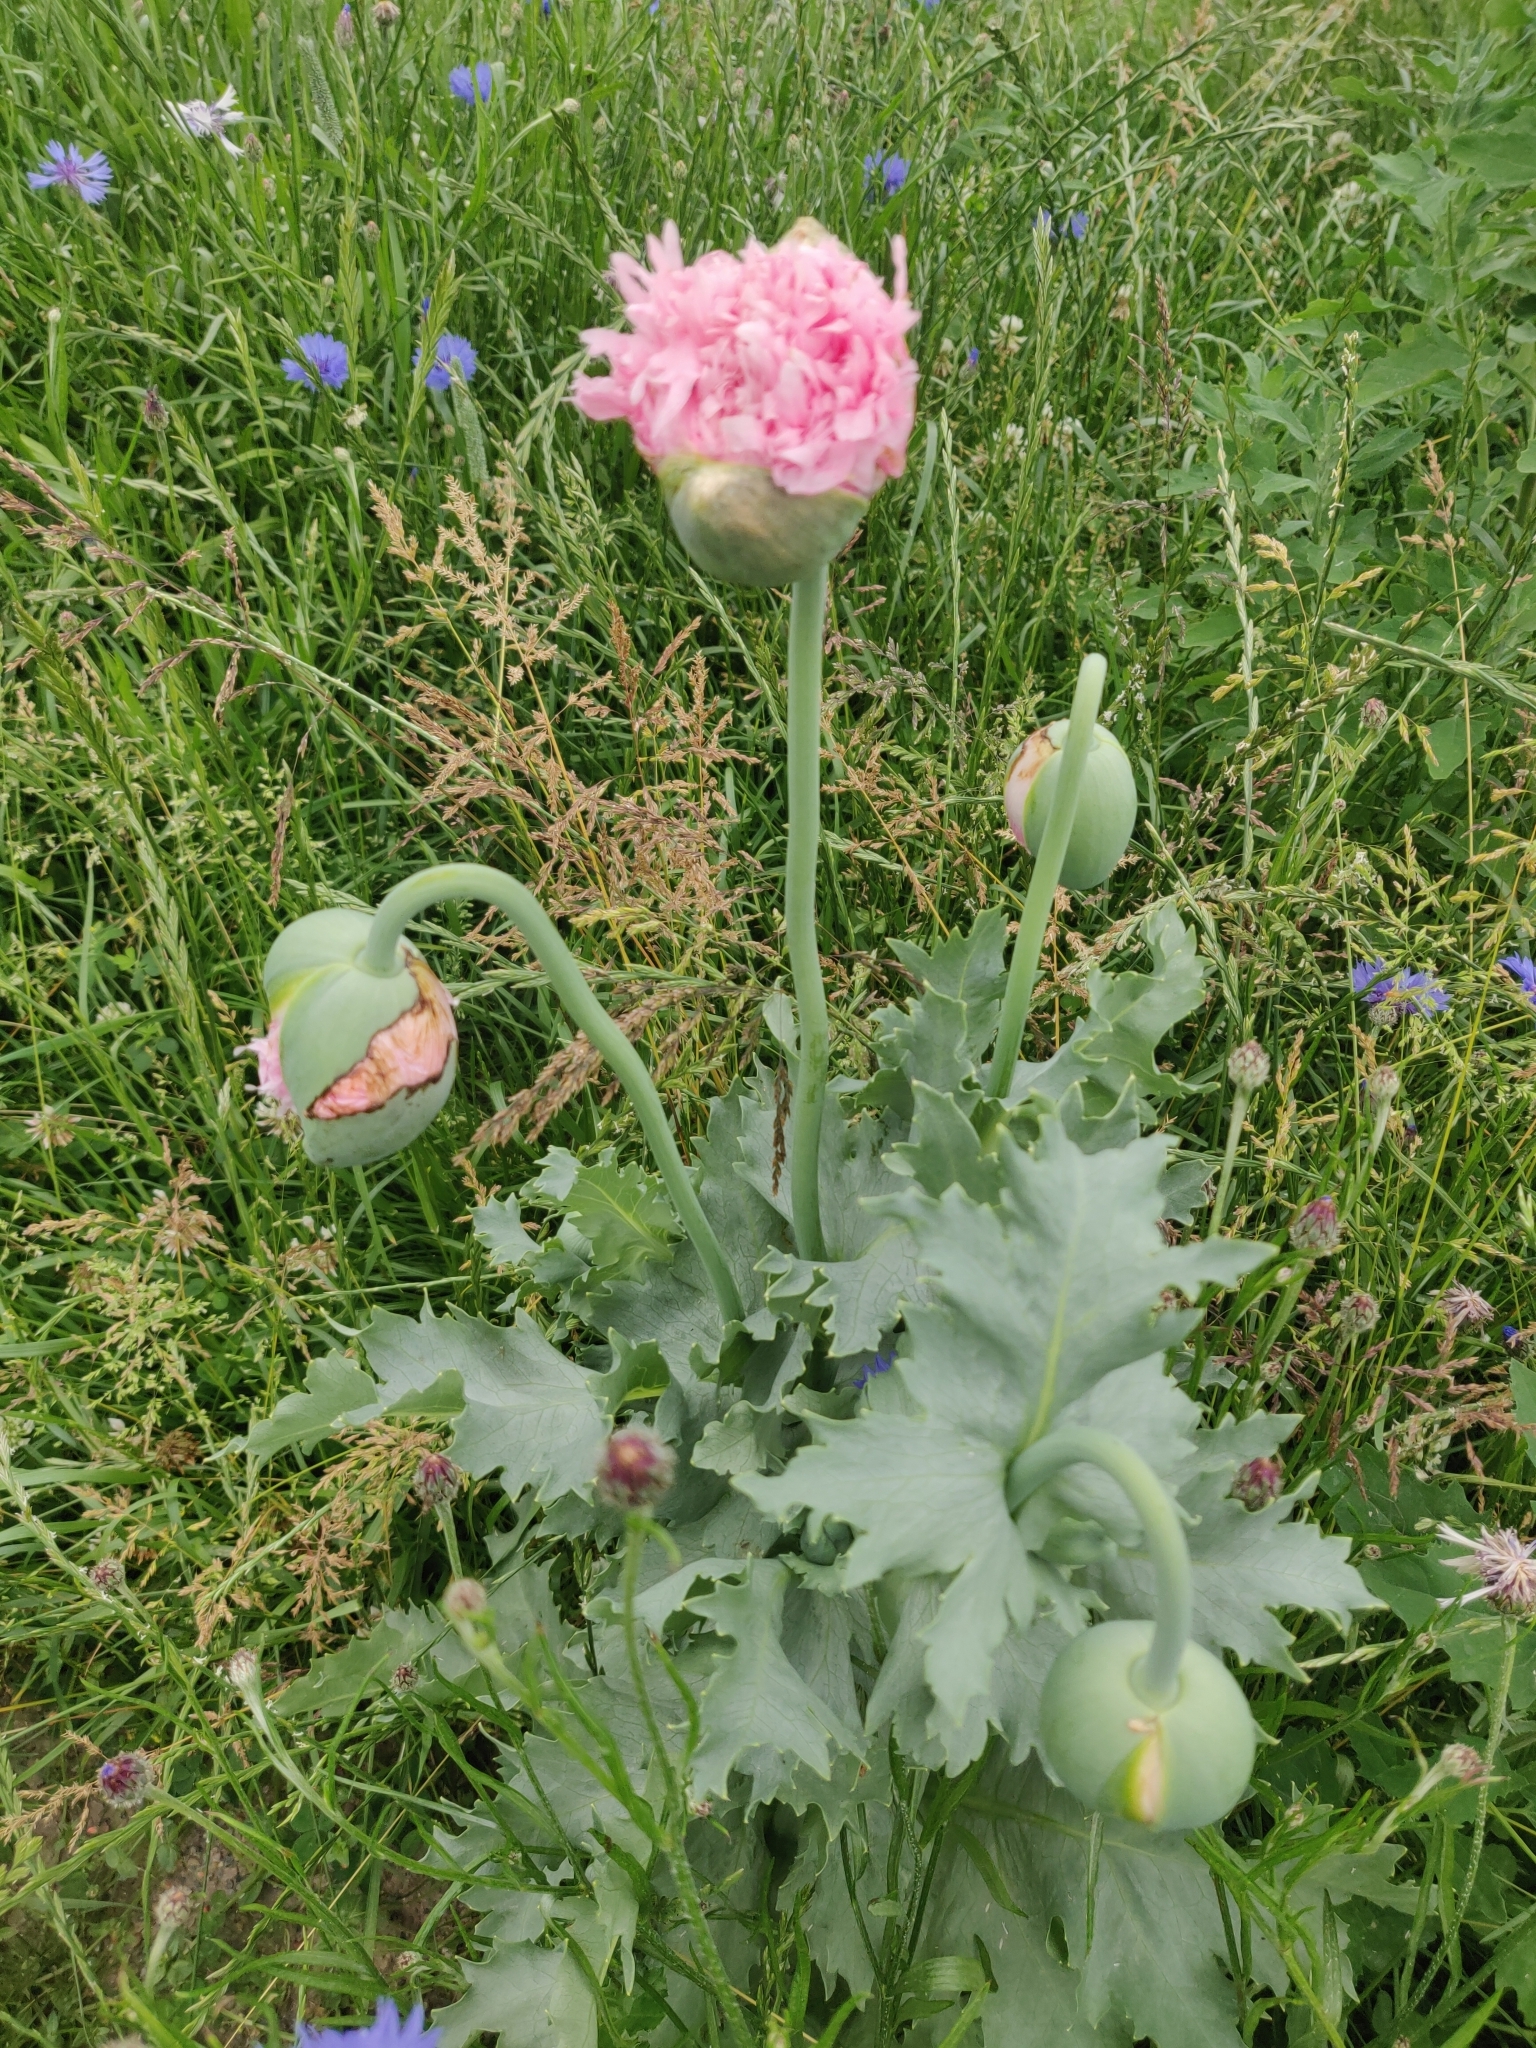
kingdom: Plantae
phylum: Tracheophyta
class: Magnoliopsida
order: Ranunculales
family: Papaveraceae
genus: Papaver
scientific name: Papaver somniferum
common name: Opium poppy
